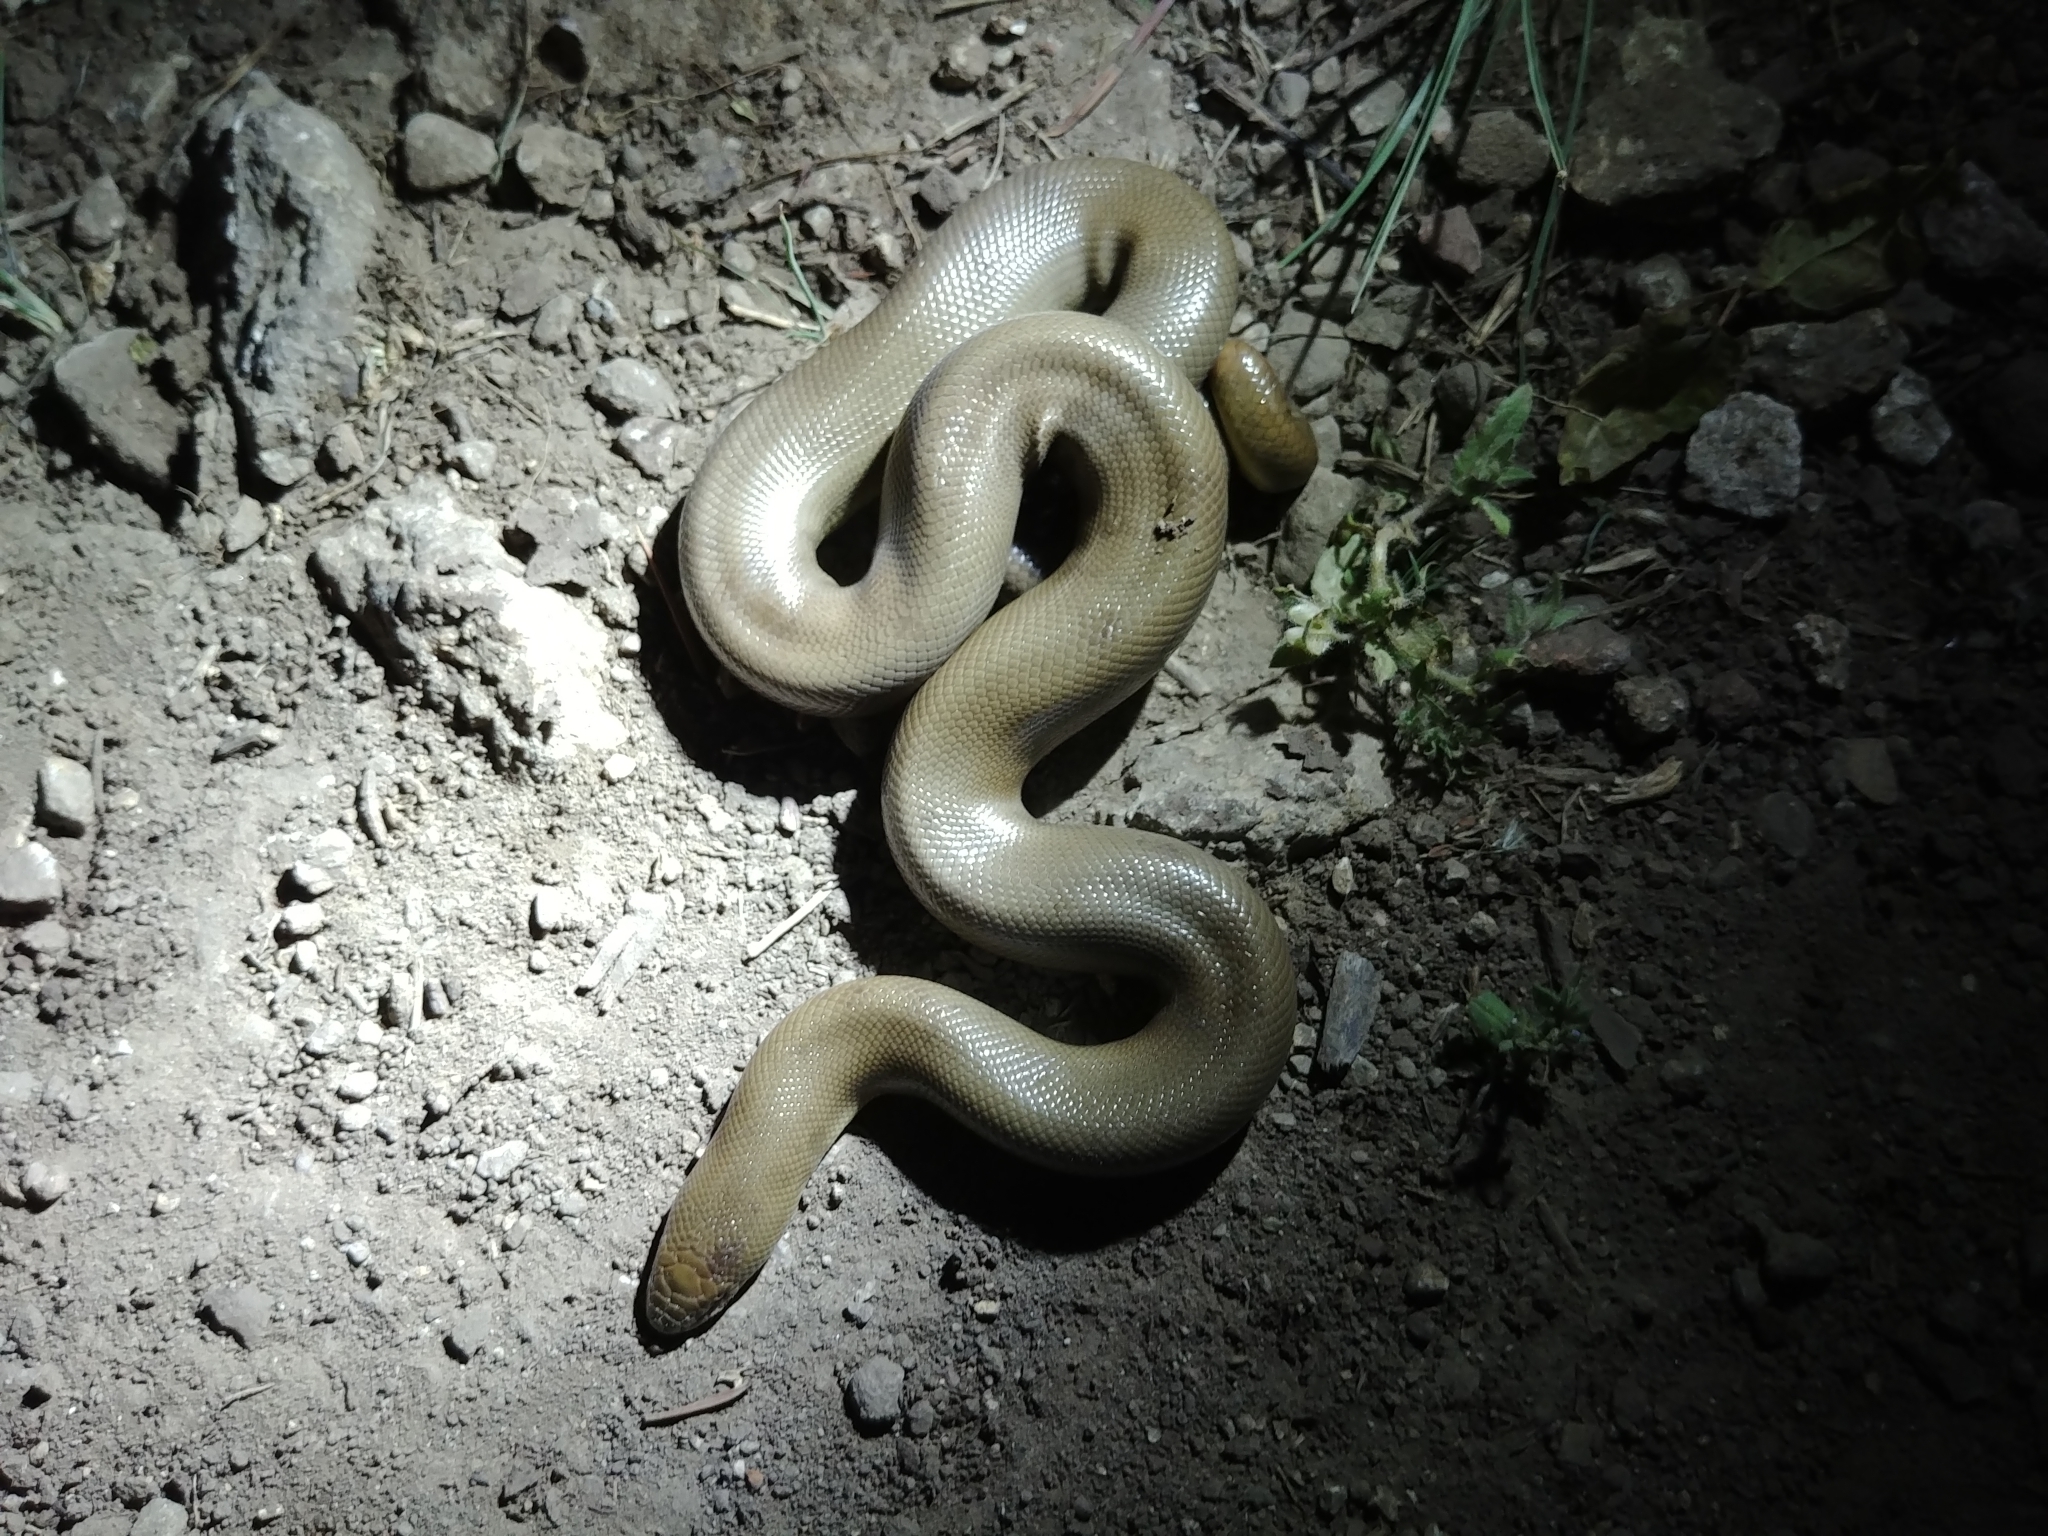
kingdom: Animalia
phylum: Chordata
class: Squamata
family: Boidae
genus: Charina
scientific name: Charina bottae
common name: Northern rubber boa
